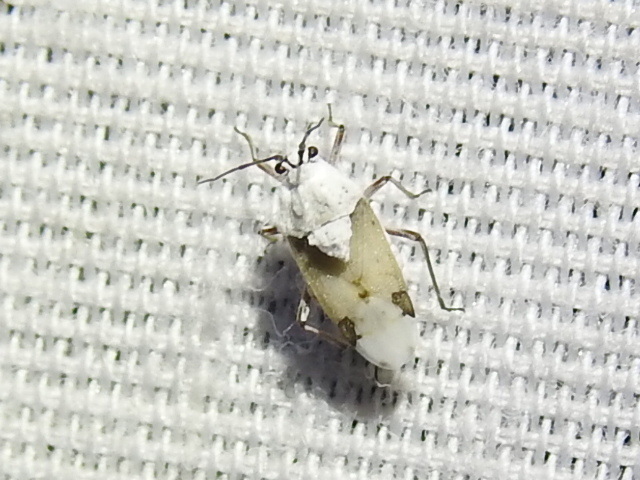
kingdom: Animalia
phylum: Arthropoda
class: Insecta
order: Hemiptera
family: Miridae
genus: Clivinema
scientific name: Clivinema villosa
